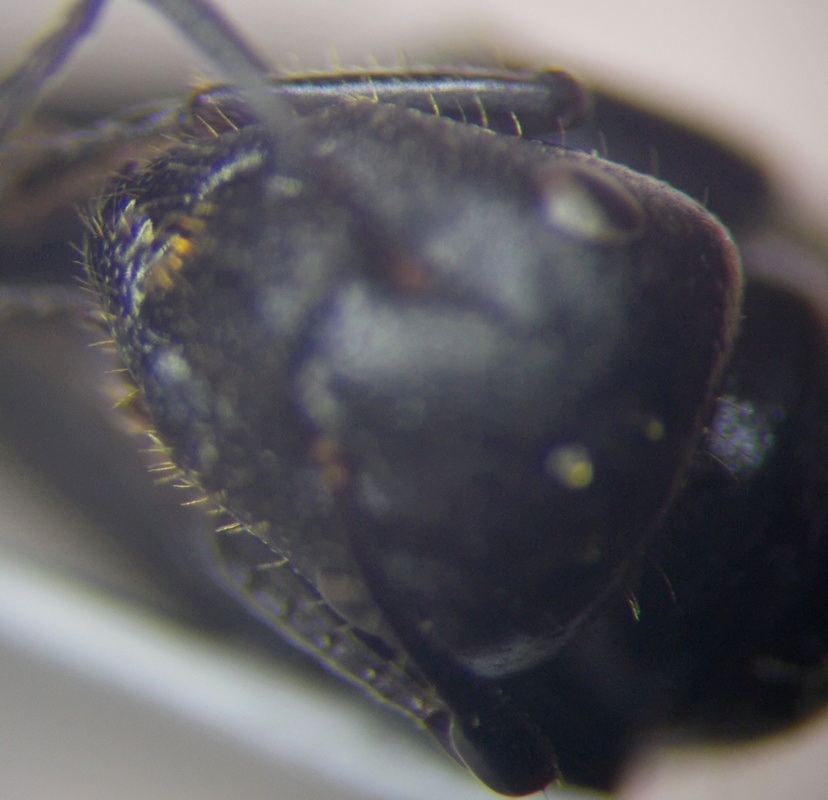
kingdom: Animalia
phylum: Arthropoda
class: Insecta
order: Hymenoptera
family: Formicidae
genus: Camponotus
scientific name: Camponotus piceus
